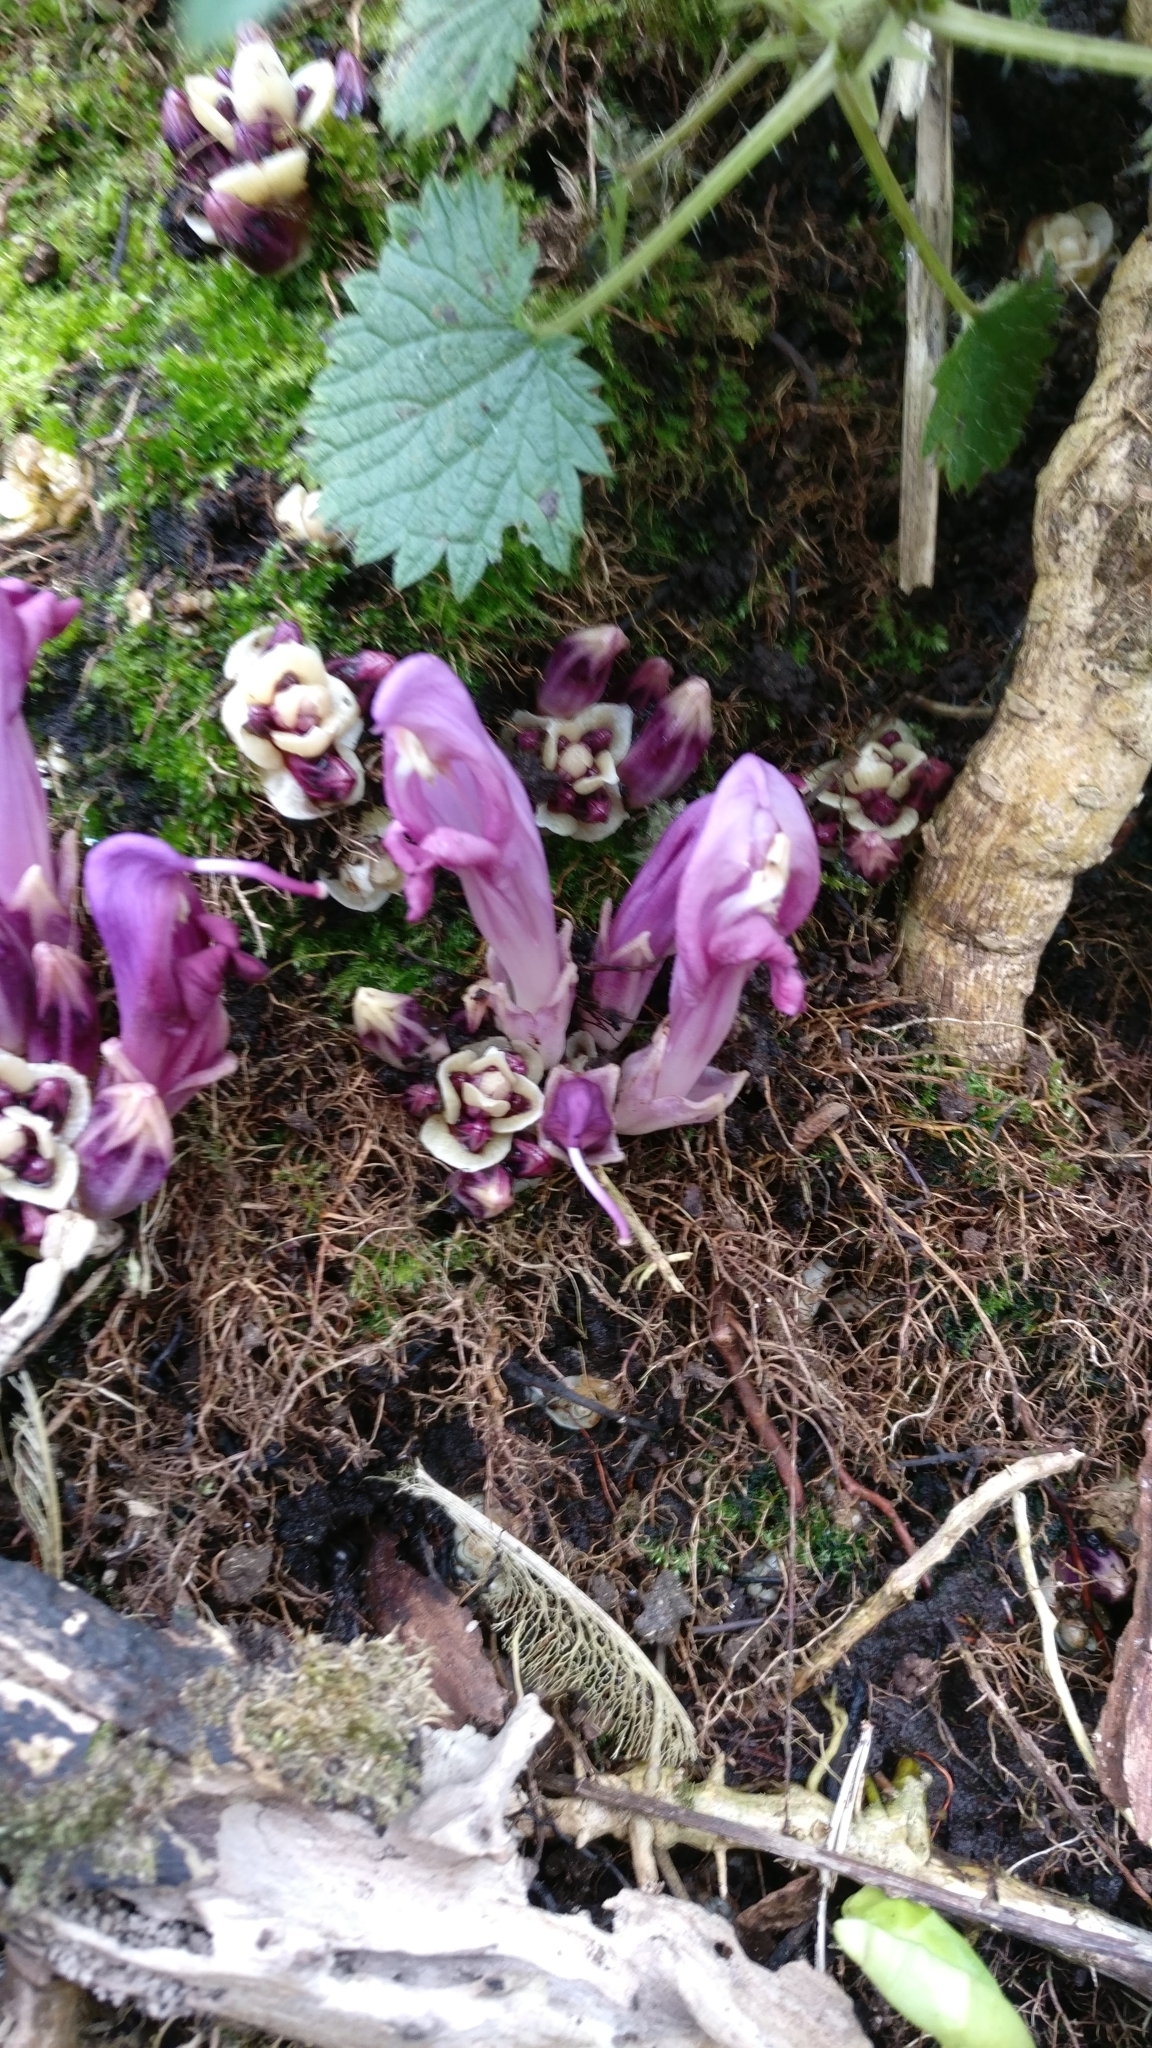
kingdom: Plantae
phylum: Tracheophyta
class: Magnoliopsida
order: Lamiales
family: Orobanchaceae
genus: Lathraea
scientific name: Lathraea clandestina
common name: Purple toothwort
